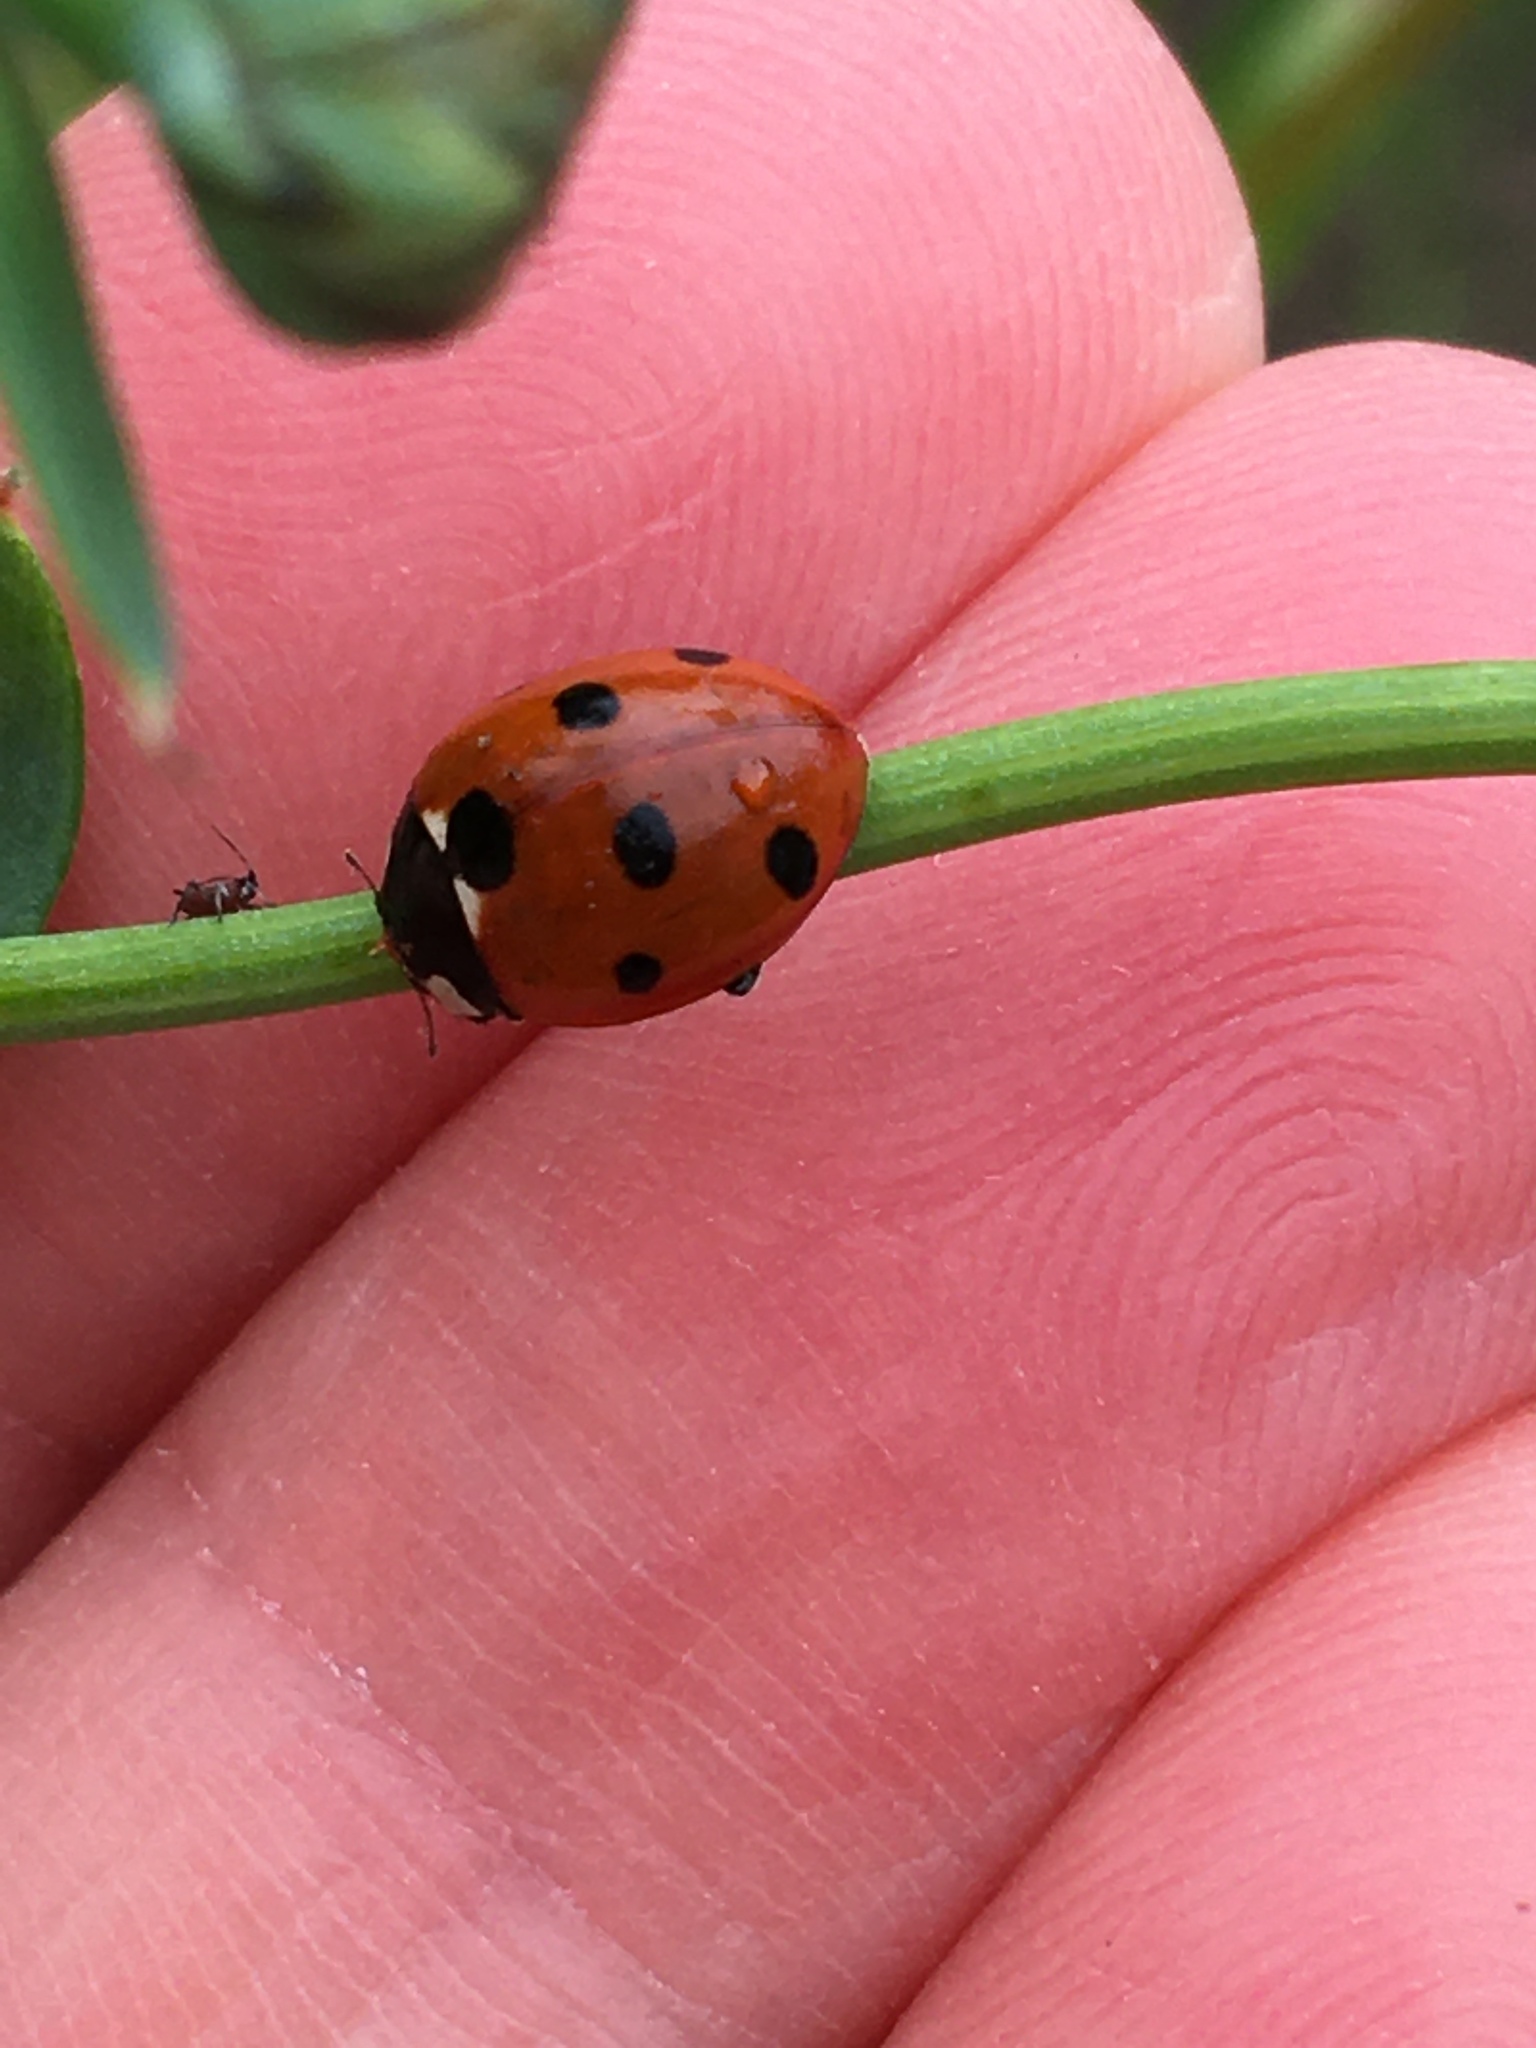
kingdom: Animalia
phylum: Arthropoda
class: Insecta
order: Coleoptera
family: Coccinellidae
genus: Coccinella
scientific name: Coccinella septempunctata
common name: Sevenspotted lady beetle
